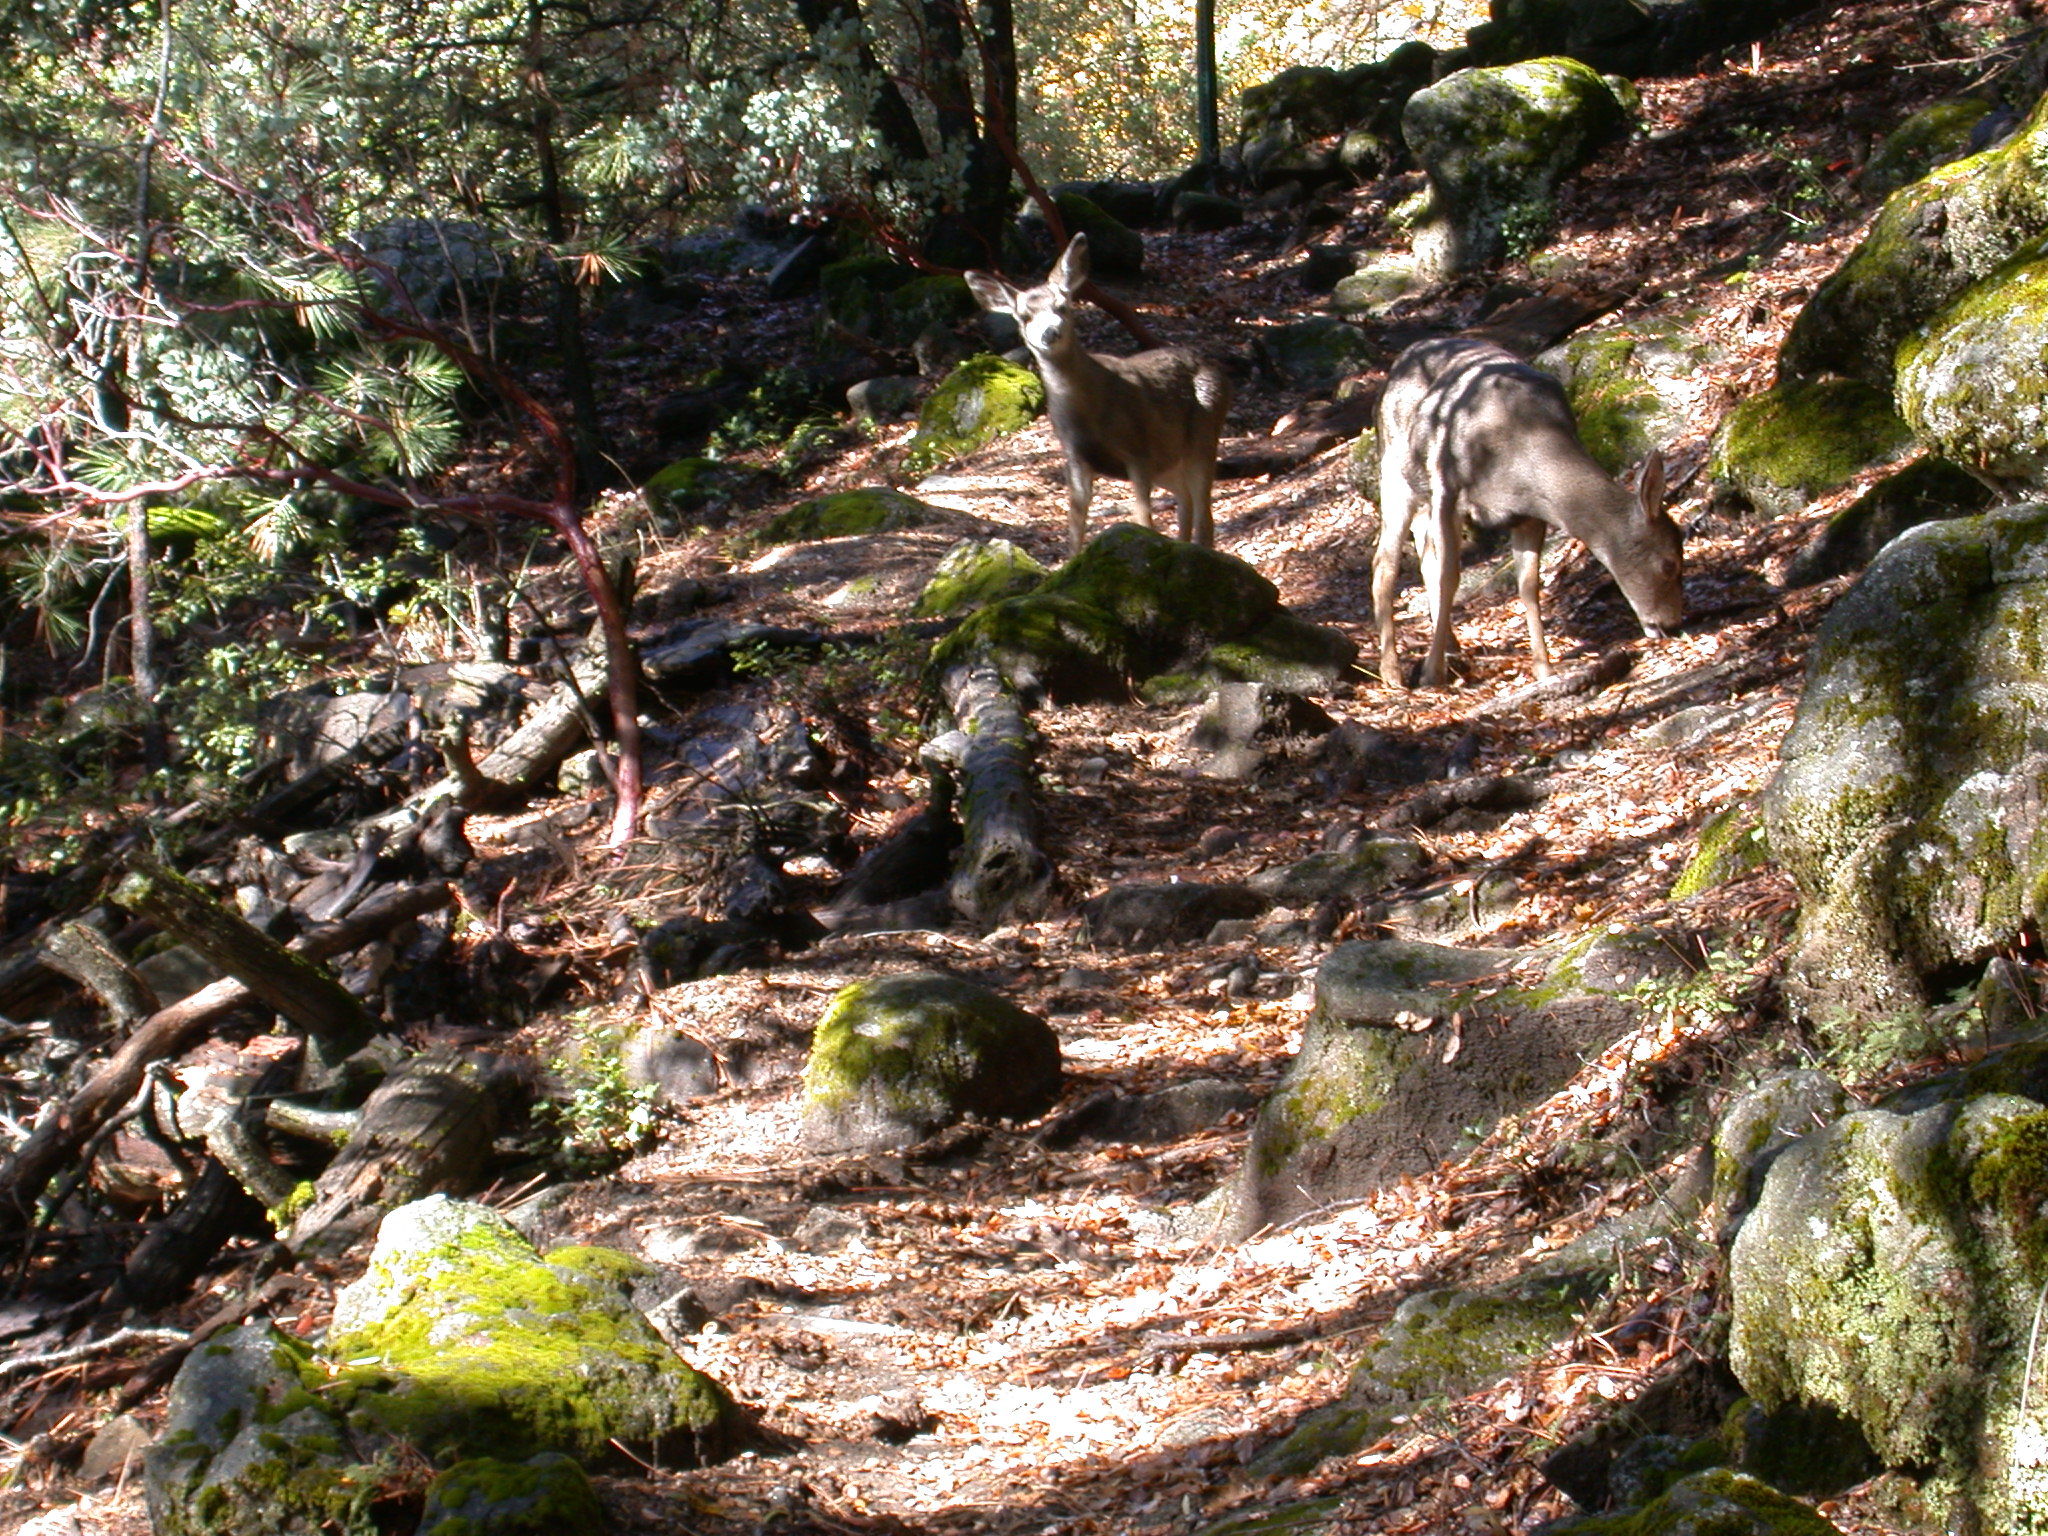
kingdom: Animalia
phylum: Chordata
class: Mammalia
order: Artiodactyla
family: Cervidae
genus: Odocoileus
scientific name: Odocoileus hemionus
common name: Mule deer
